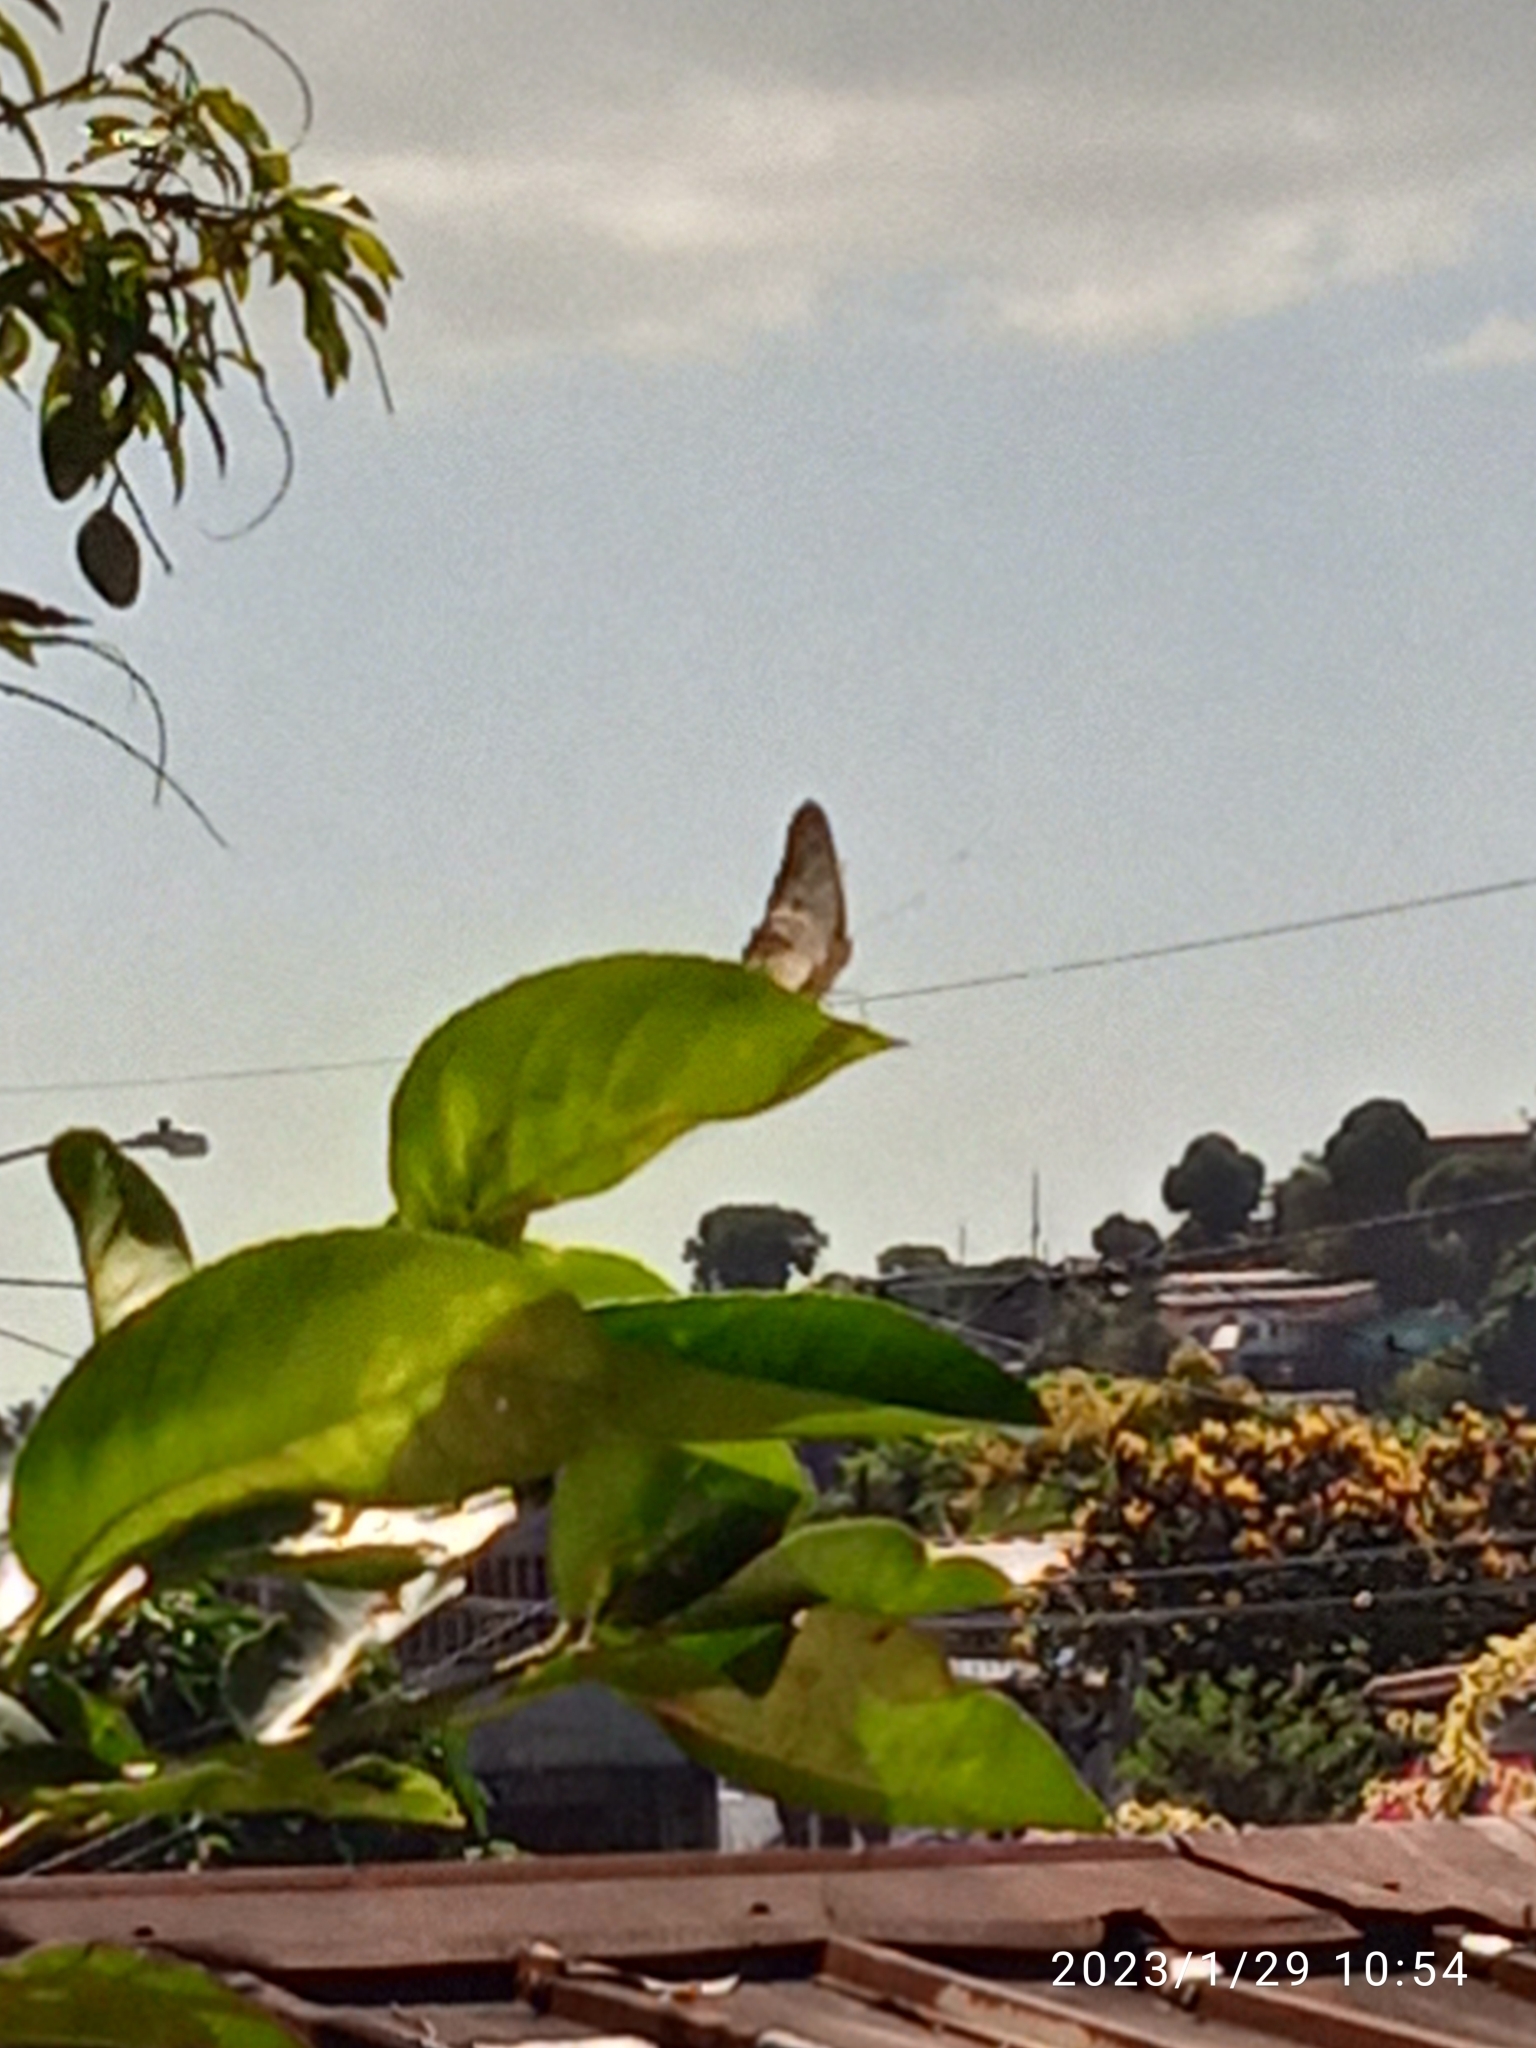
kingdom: Animalia
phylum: Arthropoda
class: Insecta
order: Lepidoptera
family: Nymphalidae
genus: Anartia
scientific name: Anartia jatrophae
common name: White peacock
